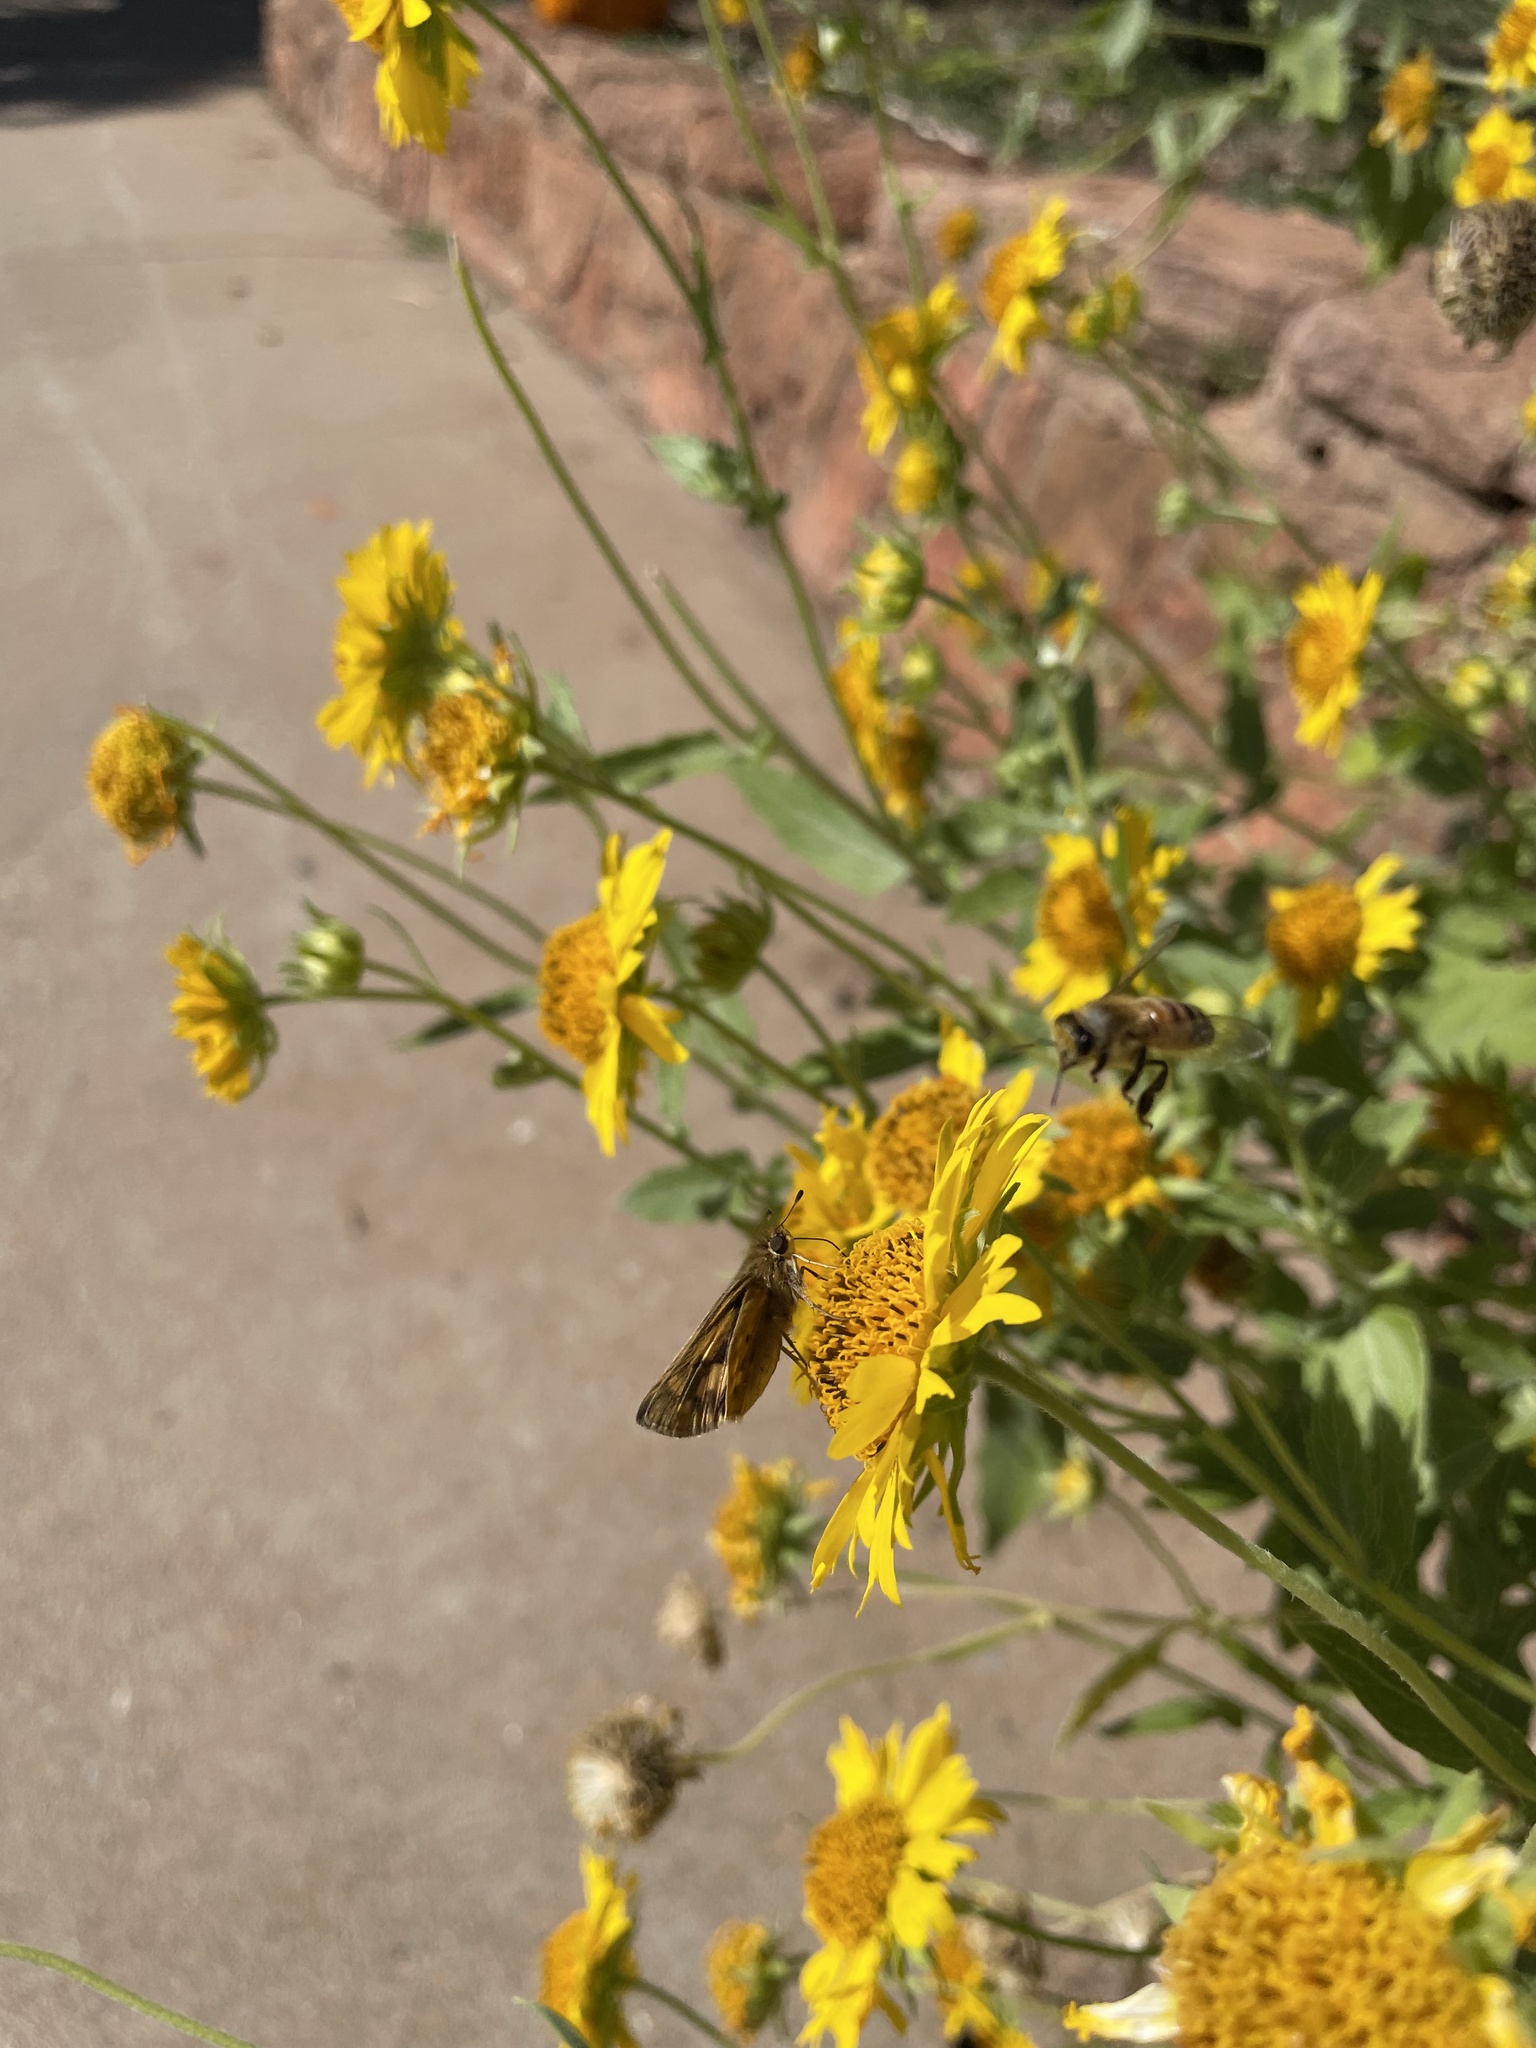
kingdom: Animalia
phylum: Arthropoda
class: Insecta
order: Lepidoptera
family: Hesperiidae
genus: Hylephila
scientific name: Hylephila phyleus
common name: Fiery skipper
